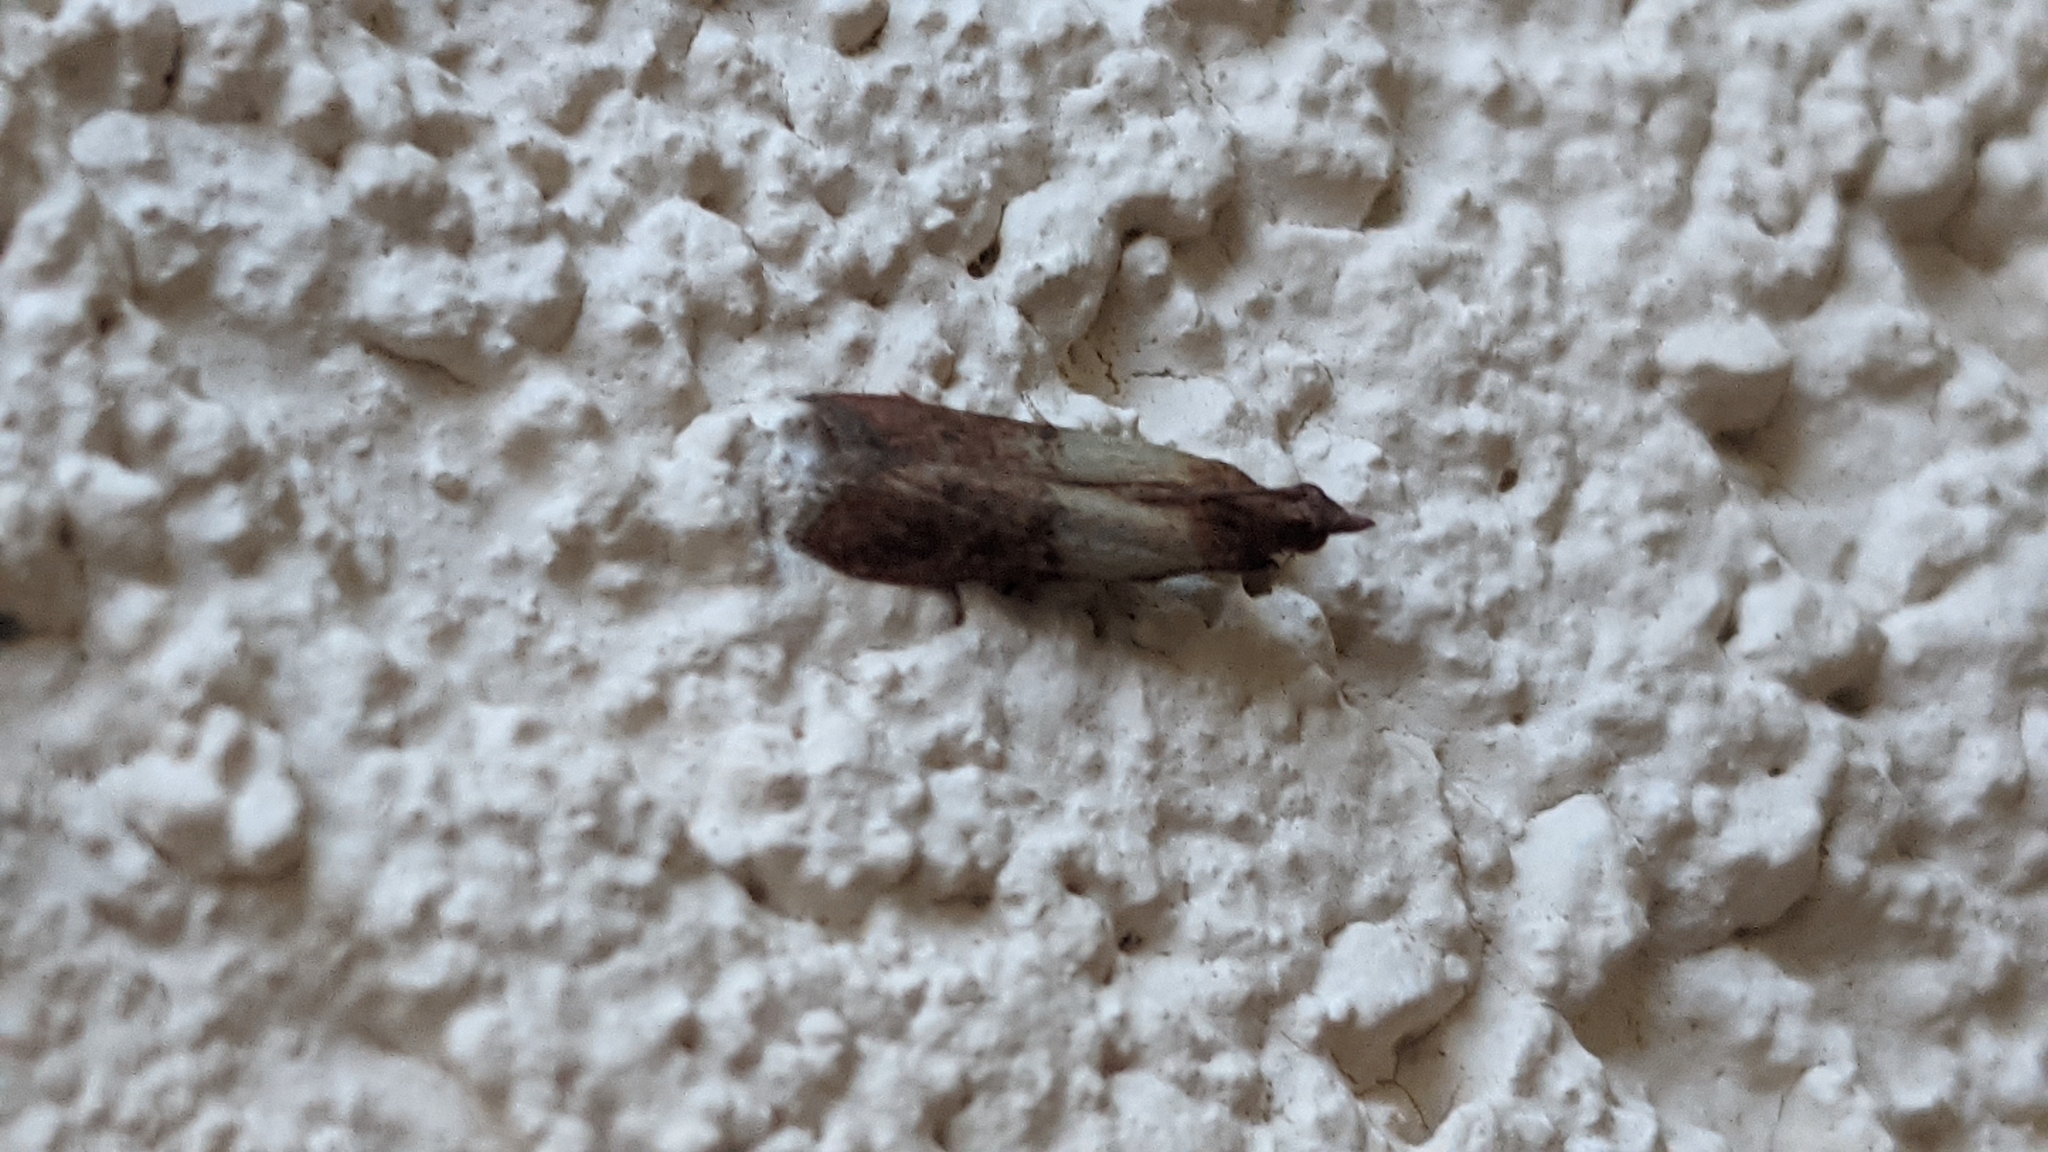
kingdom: Animalia
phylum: Arthropoda
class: Insecta
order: Lepidoptera
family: Pyralidae
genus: Plodia
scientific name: Plodia interpunctella
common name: Indian meal moth
